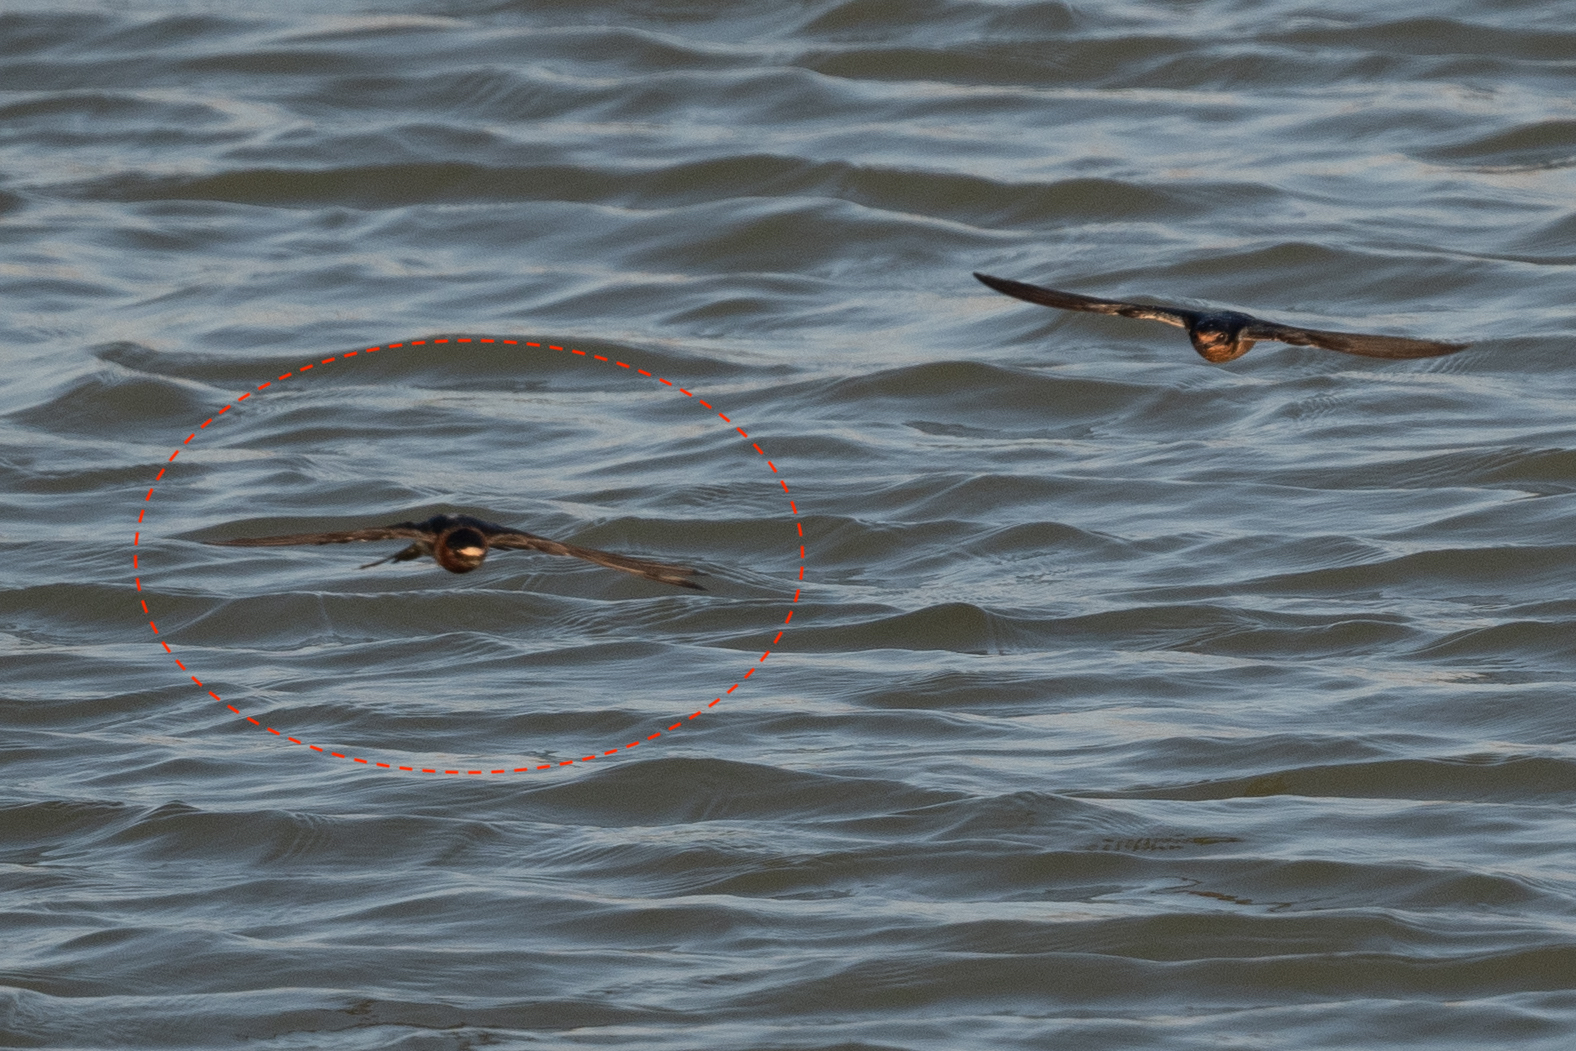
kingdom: Animalia
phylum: Chordata
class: Aves
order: Passeriformes
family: Hirundinidae
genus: Petrochelidon
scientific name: Petrochelidon pyrrhonota
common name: American cliff swallow
